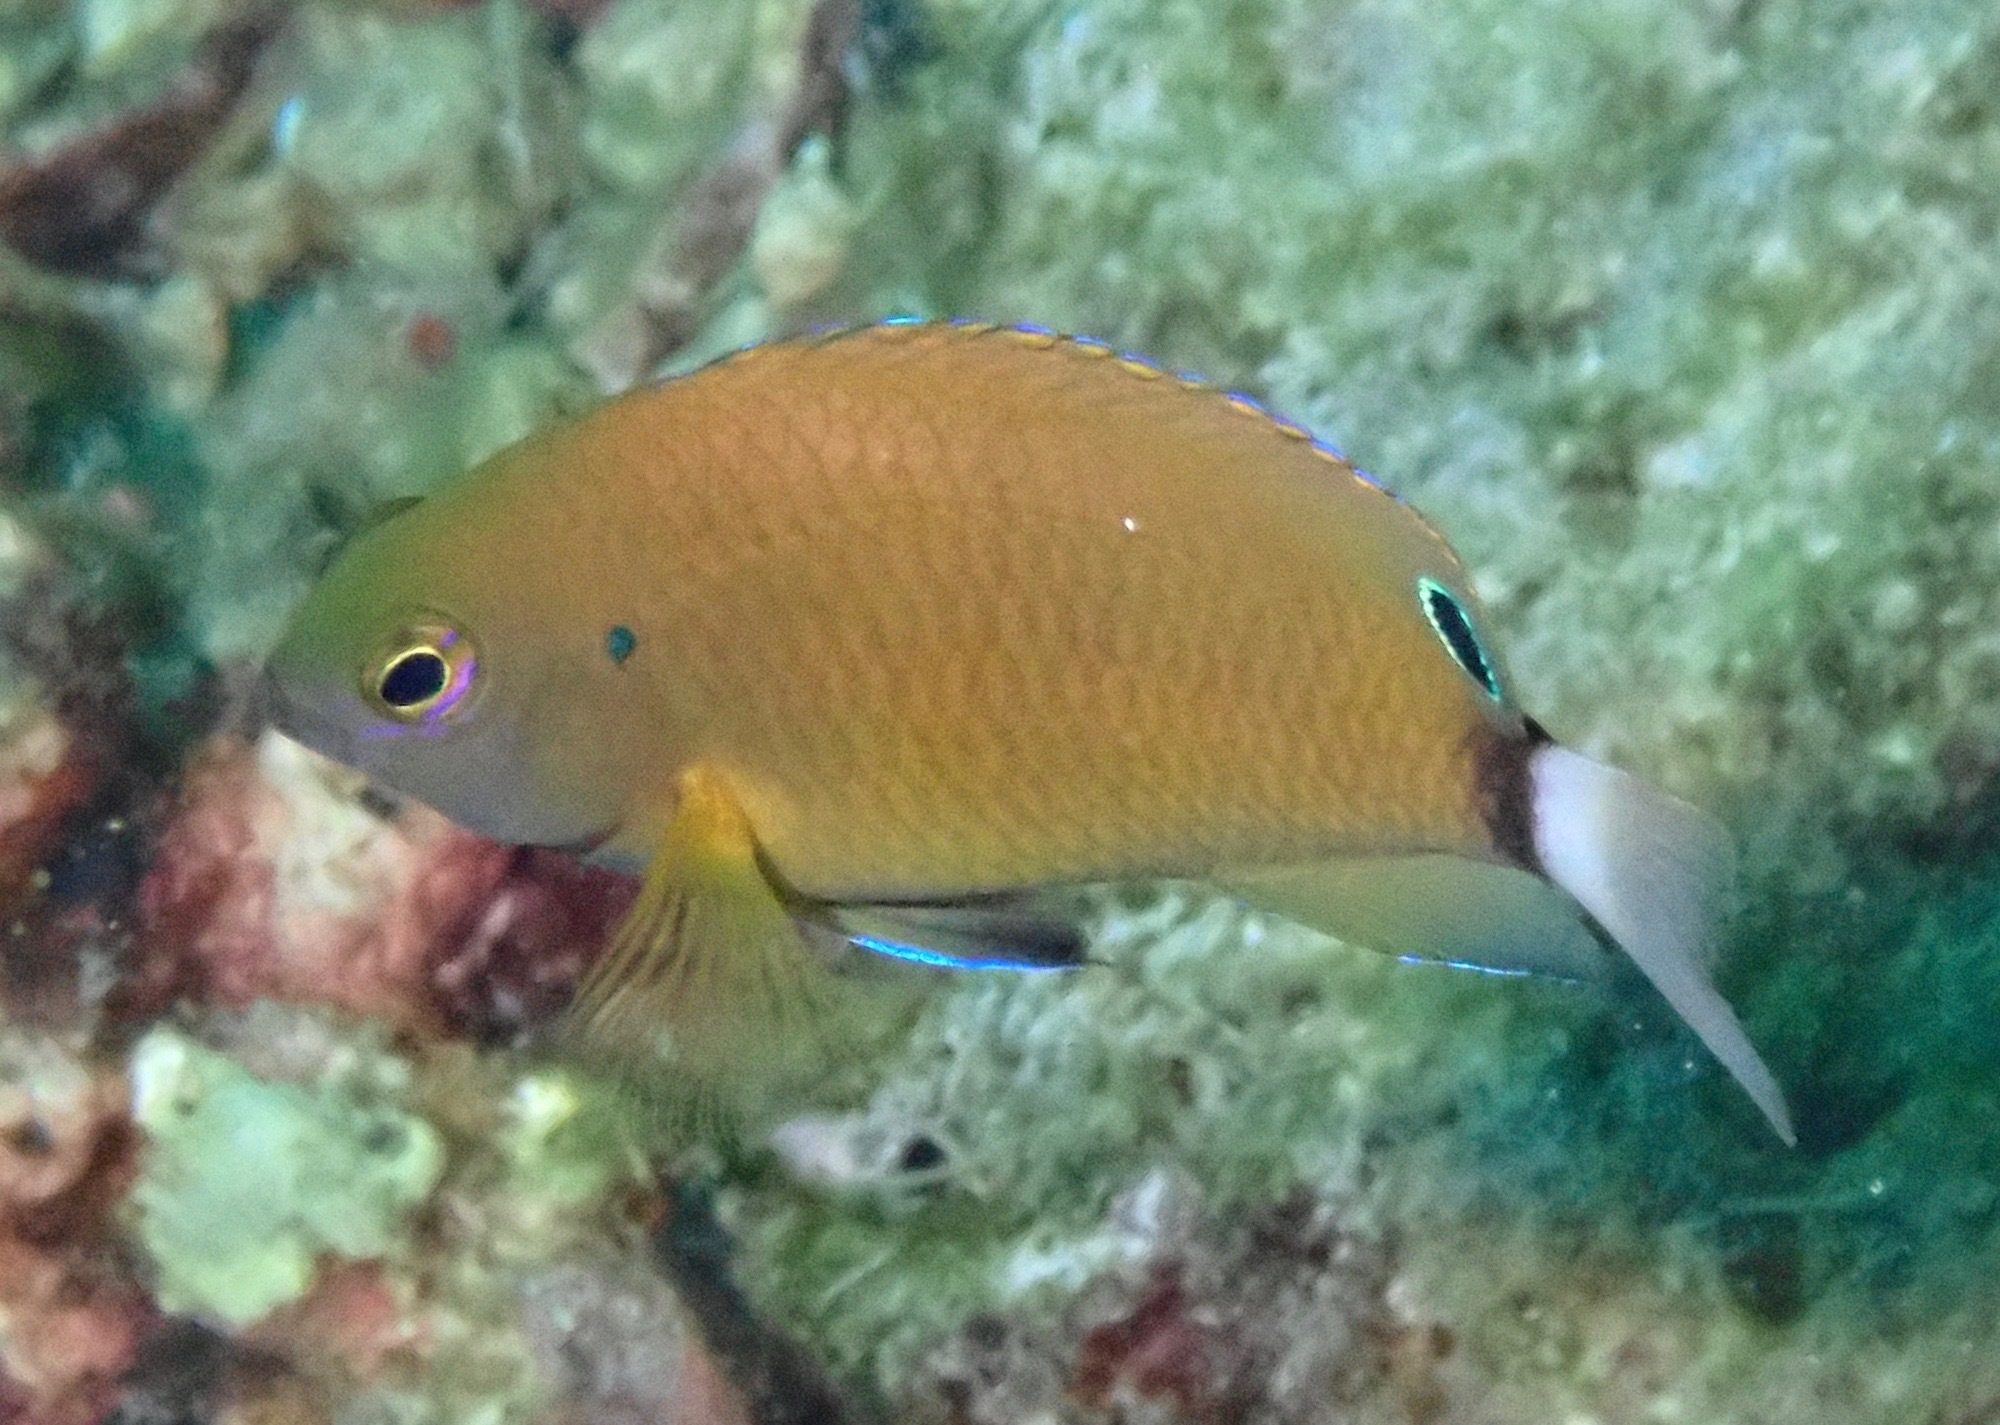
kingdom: Animalia
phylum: Chordata
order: Perciformes
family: Pomacentridae
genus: Pomacentrus
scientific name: Pomacentrus chrysurus
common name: White-tail damsel
